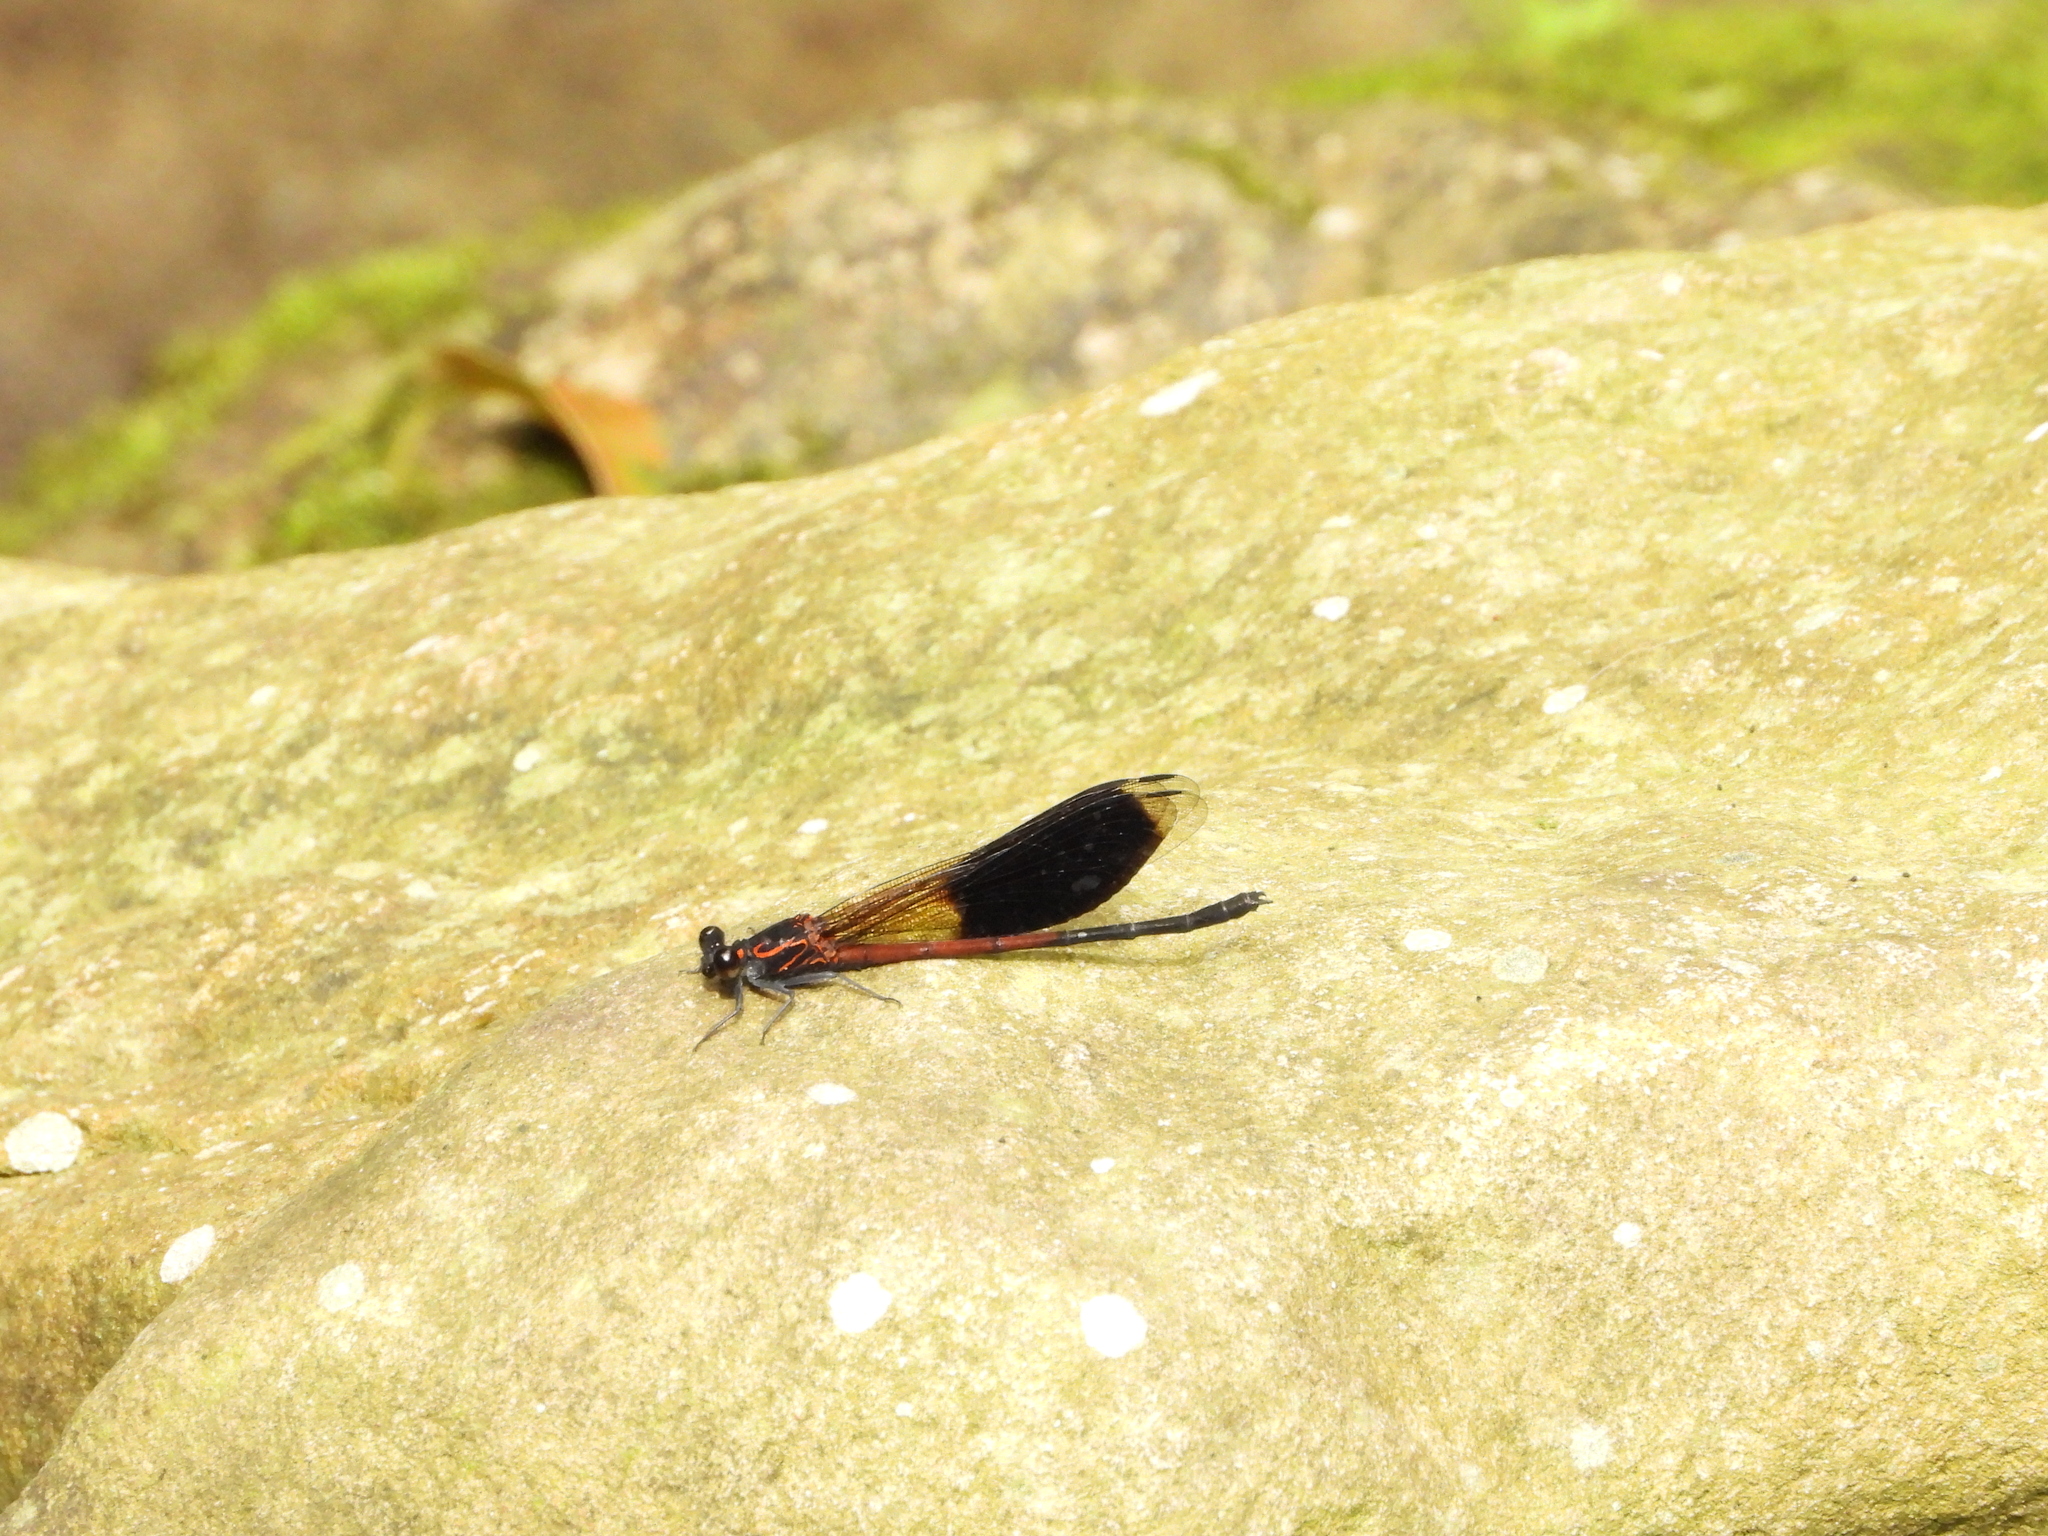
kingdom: Animalia
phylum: Arthropoda
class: Insecta
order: Odonata
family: Euphaeidae
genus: Euphaea
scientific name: Euphaea formosa
